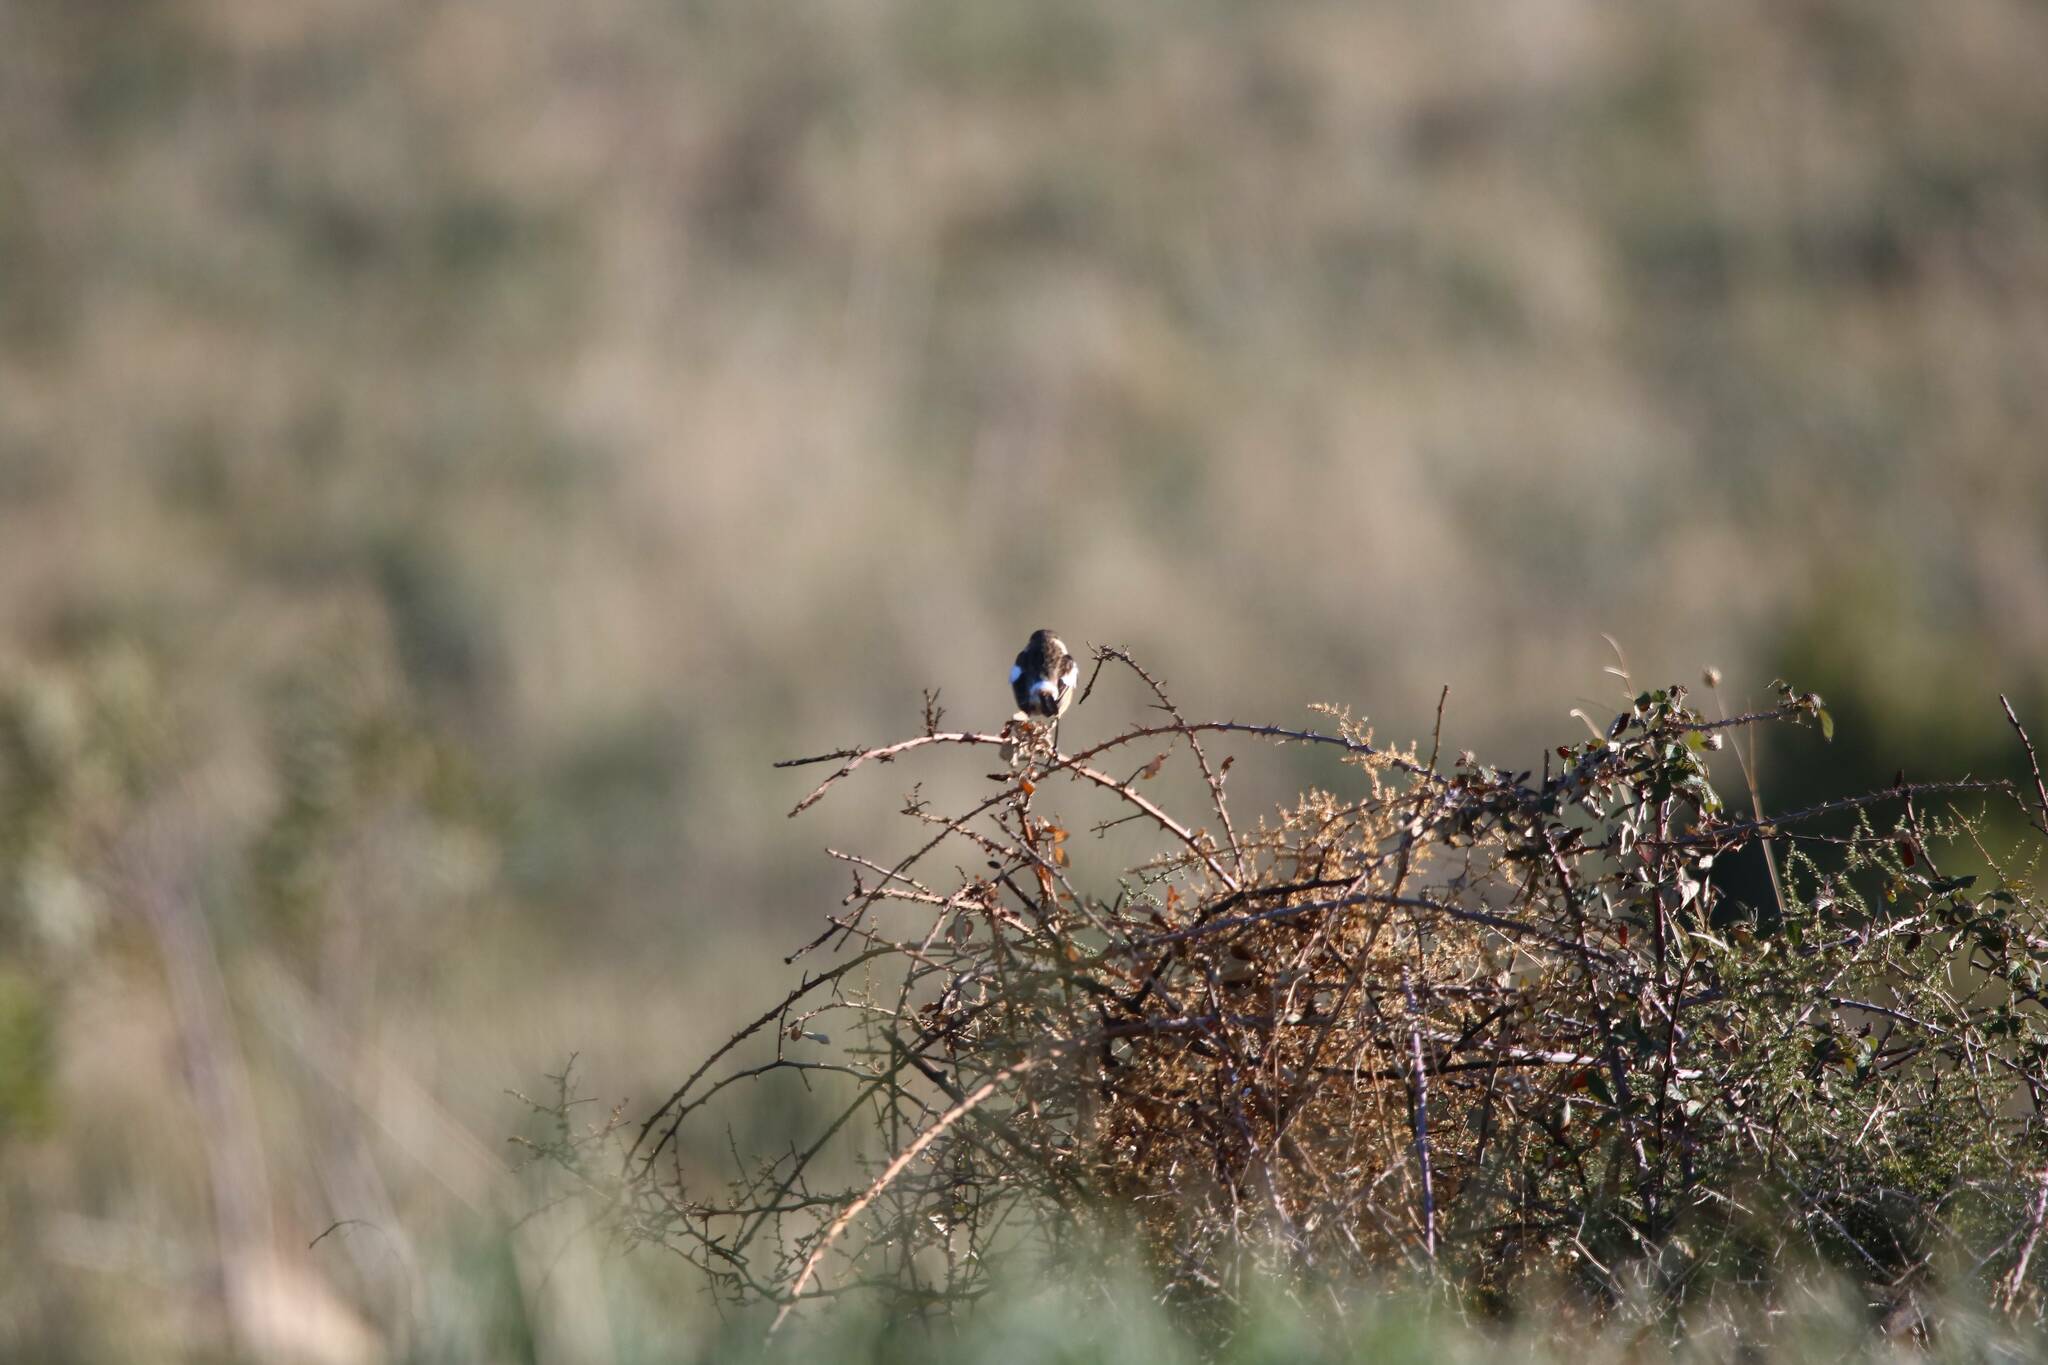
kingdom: Animalia
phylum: Chordata
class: Aves
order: Passeriformes
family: Muscicapidae
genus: Saxicola
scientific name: Saxicola rubicola
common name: European stonechat
